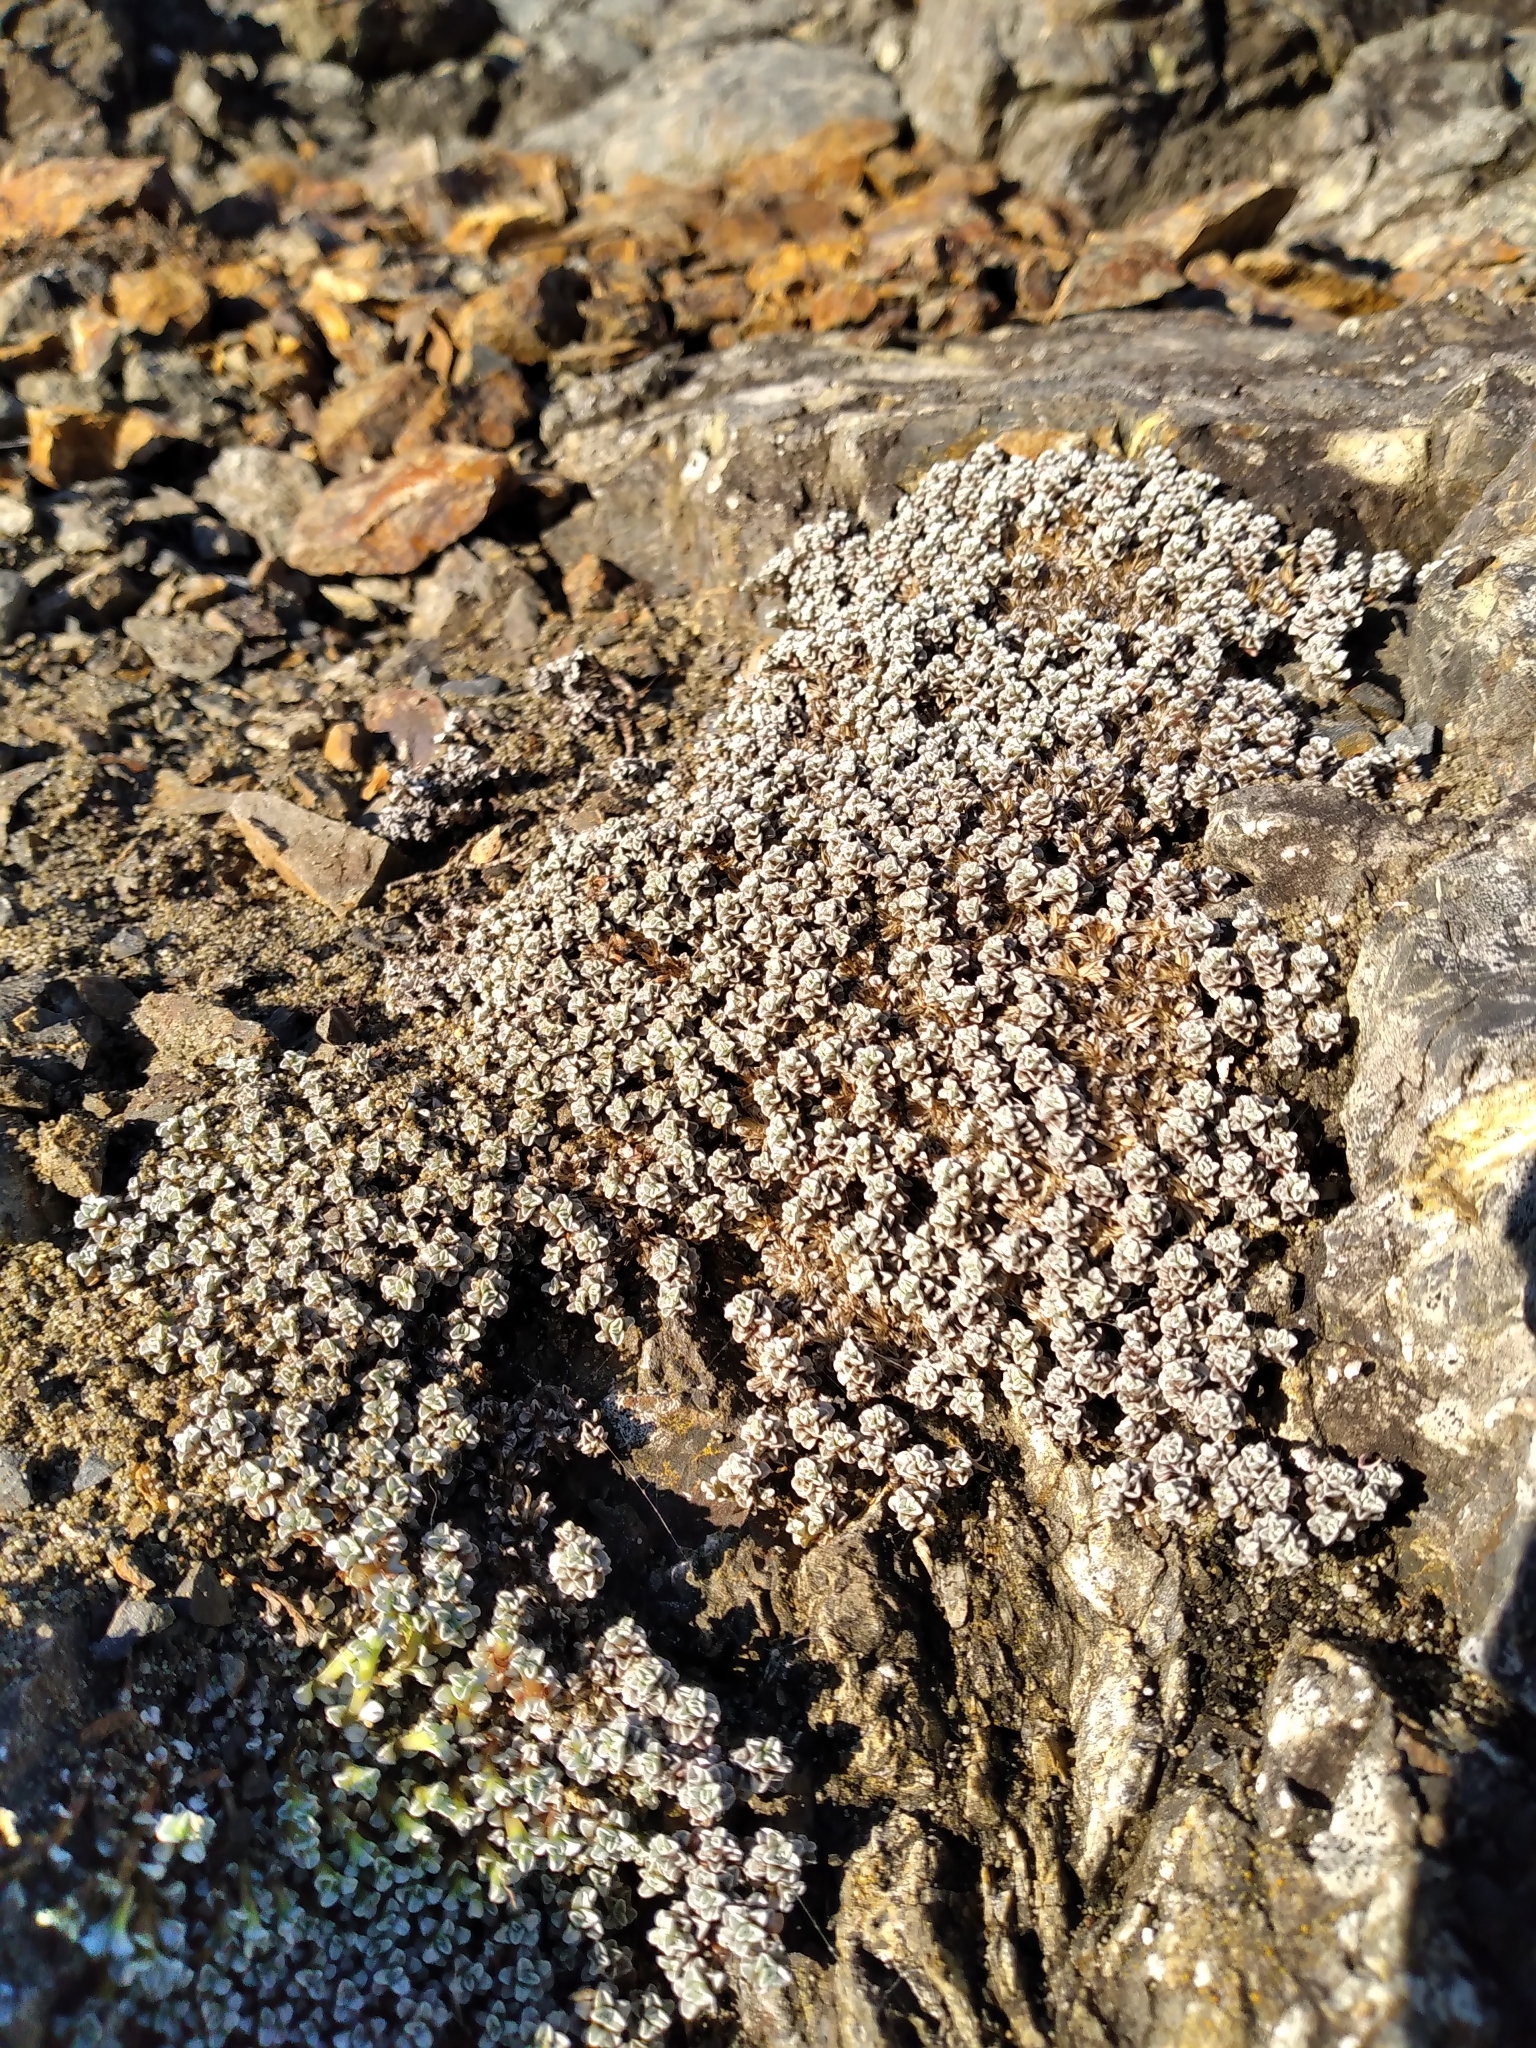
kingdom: Plantae
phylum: Tracheophyta
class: Magnoliopsida
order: Asterales
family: Asteraceae
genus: Raoulia
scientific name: Raoulia hookeri
